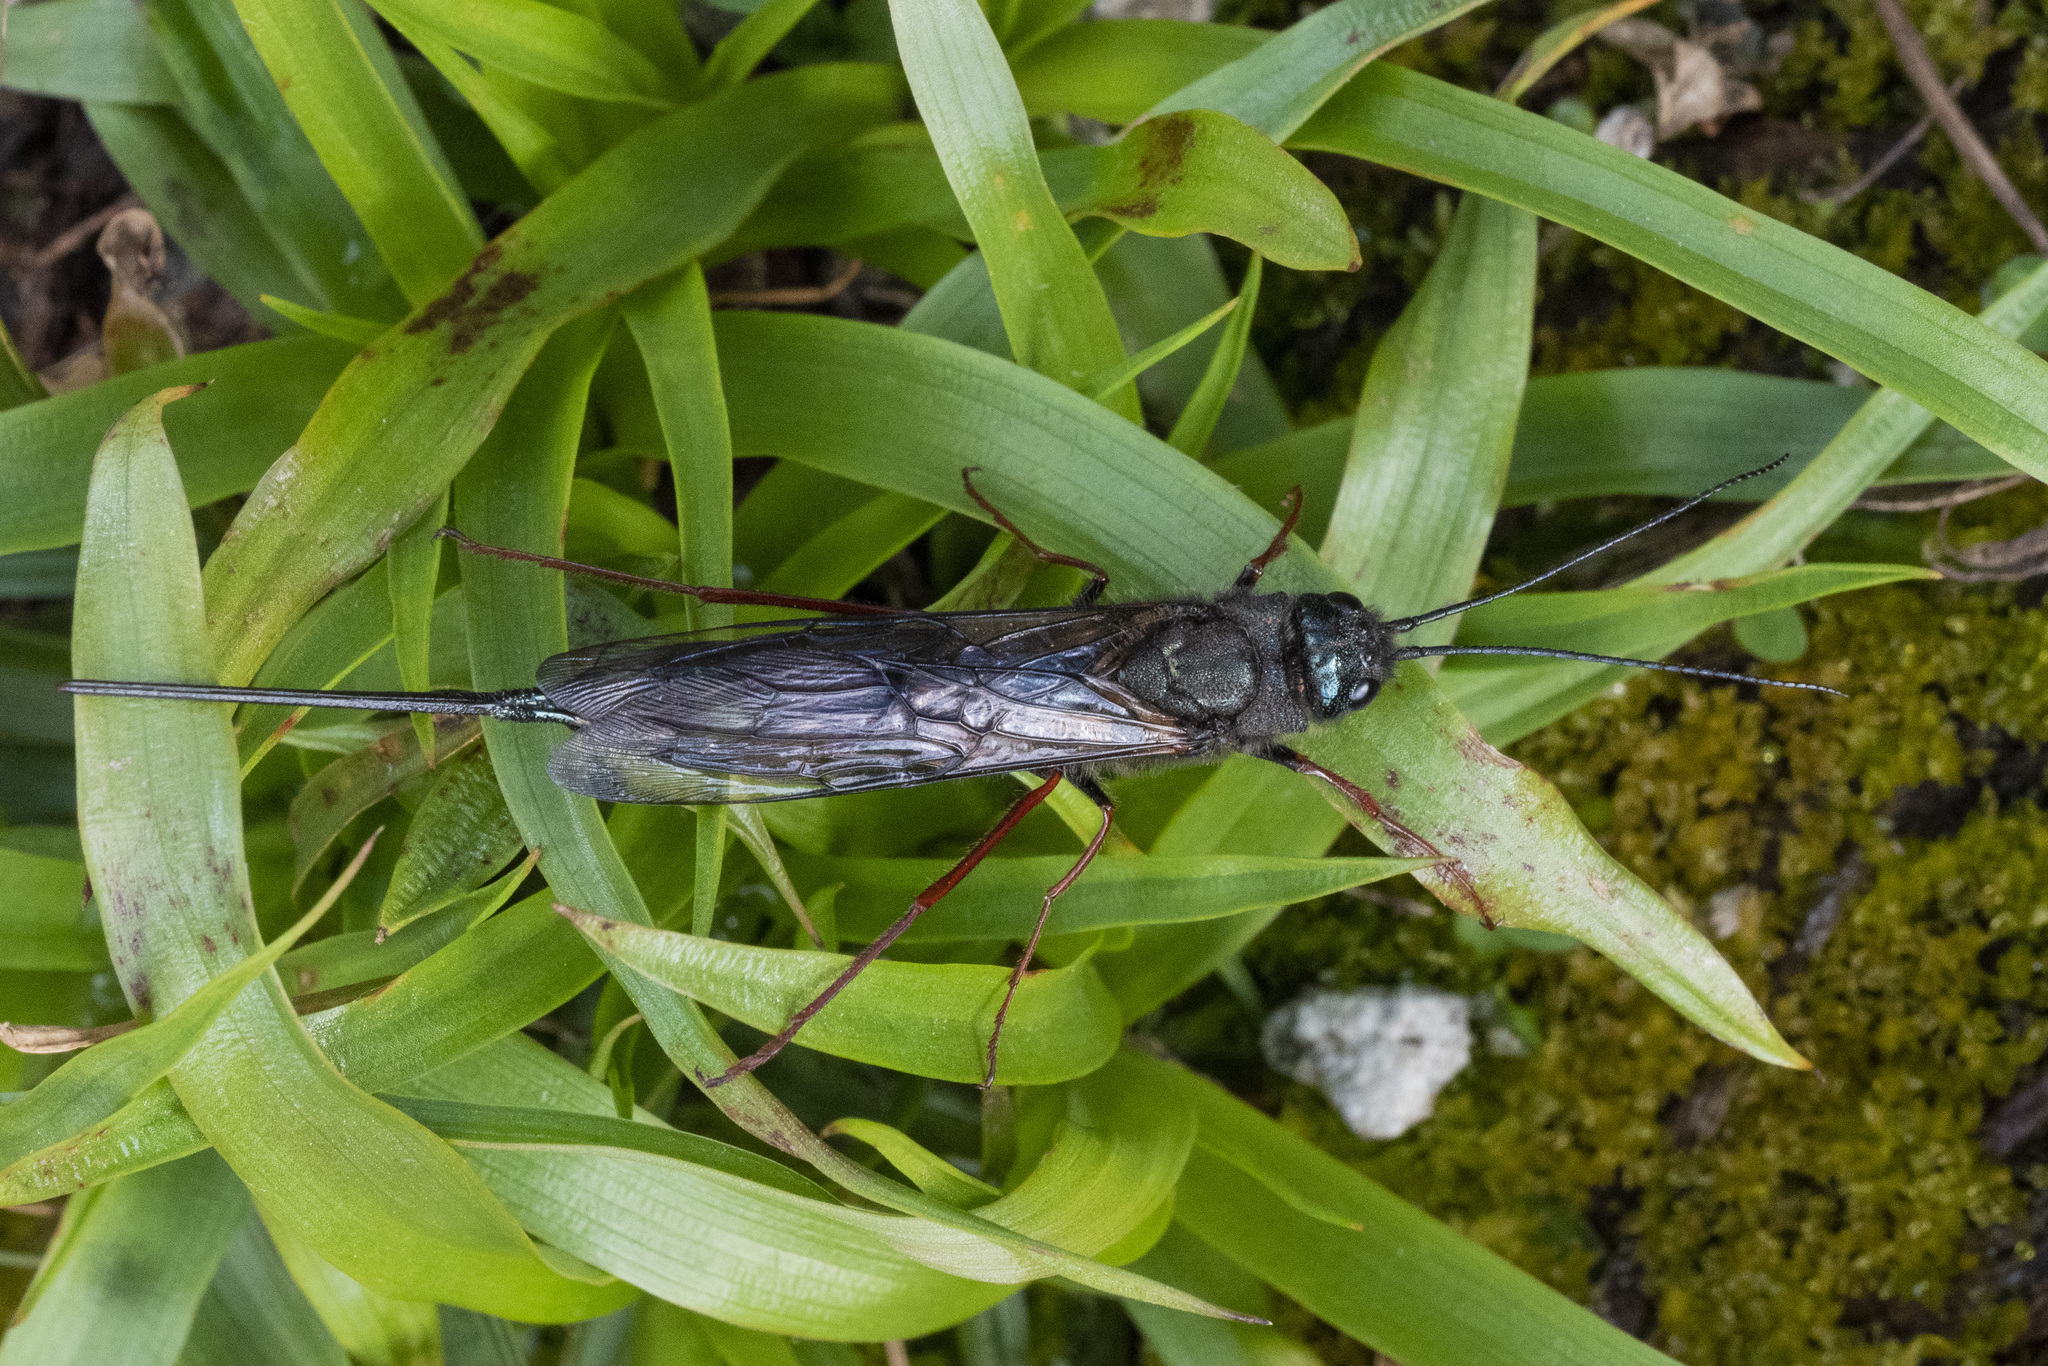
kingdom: Animalia
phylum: Arthropoda
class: Insecta
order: Hymenoptera
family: Siricidae
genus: Sirex
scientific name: Sirex longicauda
